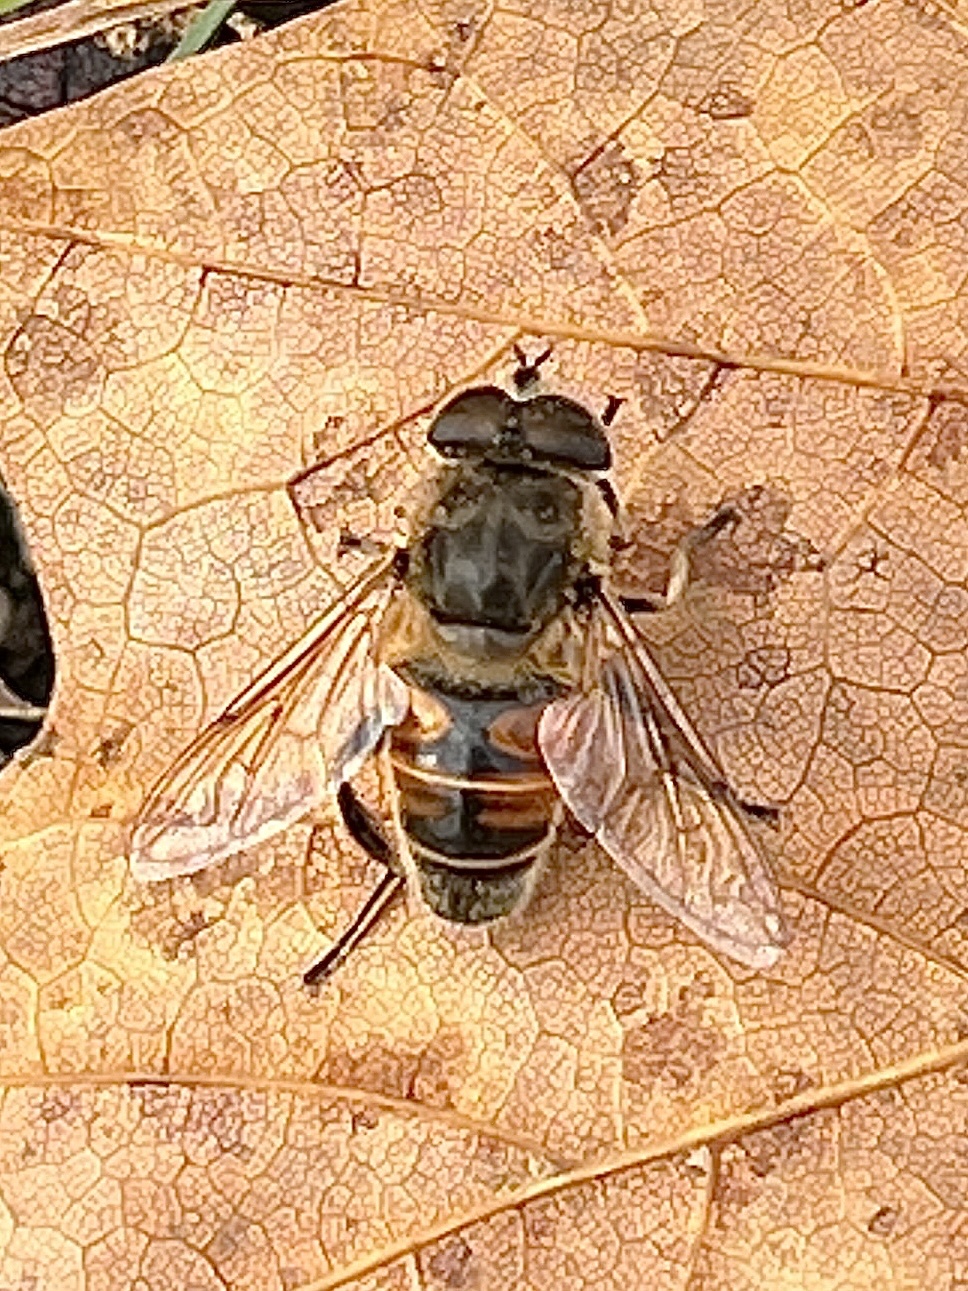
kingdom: Animalia
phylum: Arthropoda
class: Insecta
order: Diptera
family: Syrphidae
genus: Eristalis
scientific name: Eristalis tenax
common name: Drone fly
